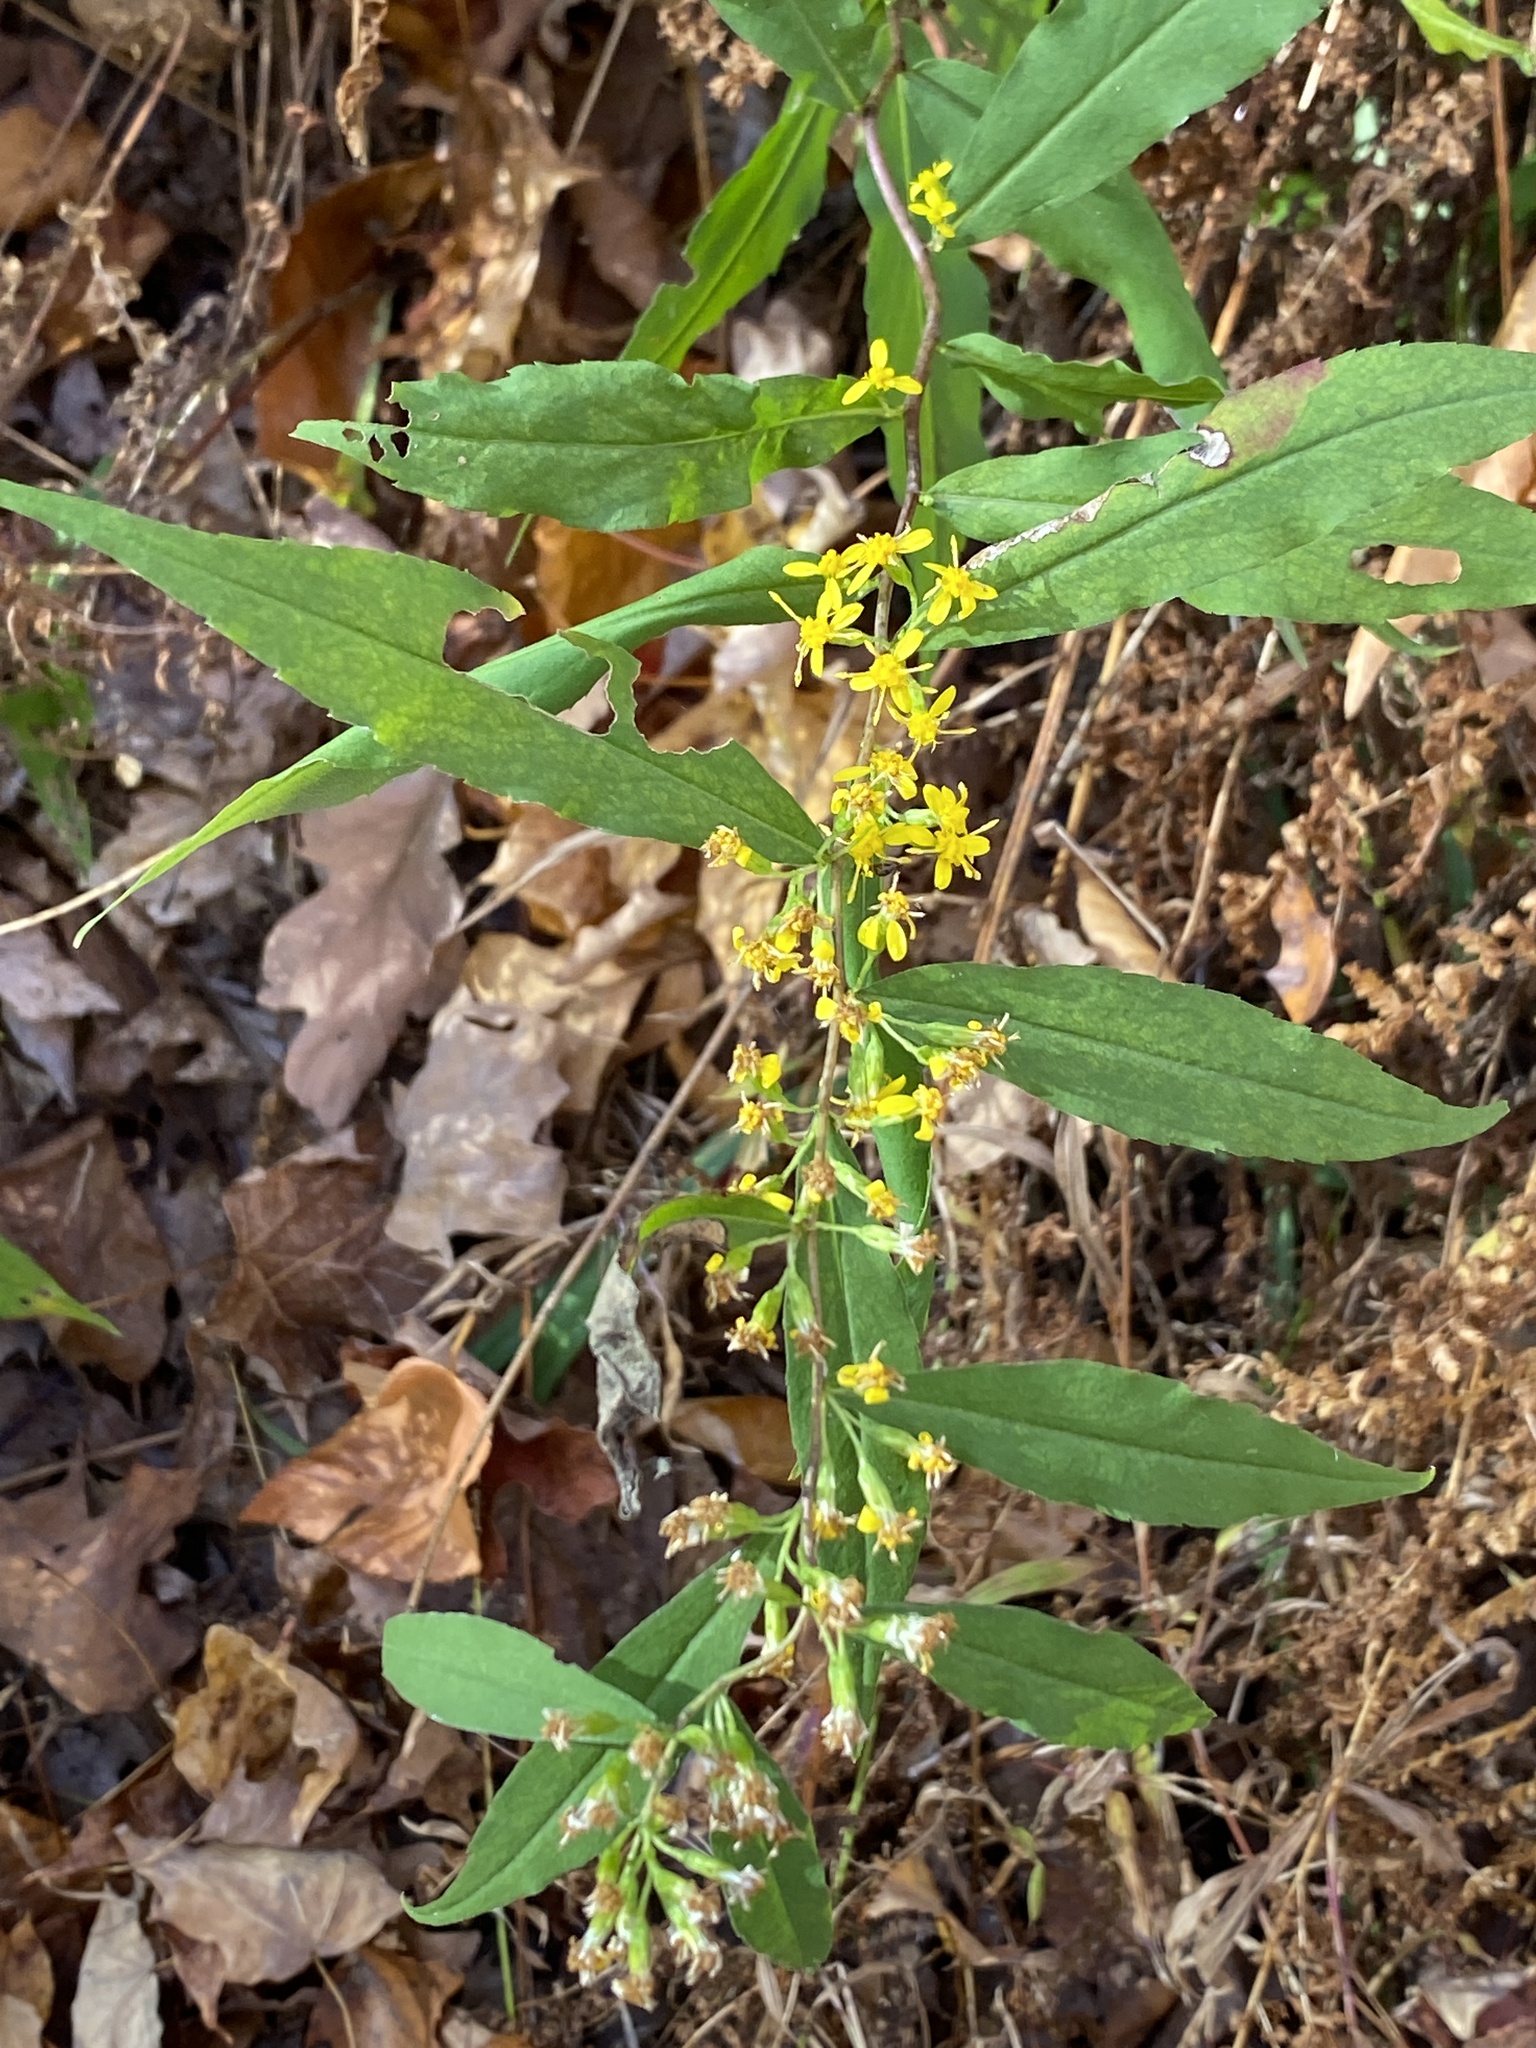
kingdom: Plantae
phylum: Tracheophyta
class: Magnoliopsida
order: Asterales
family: Asteraceae
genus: Solidago
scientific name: Solidago caesia
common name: Woodland goldenrod
